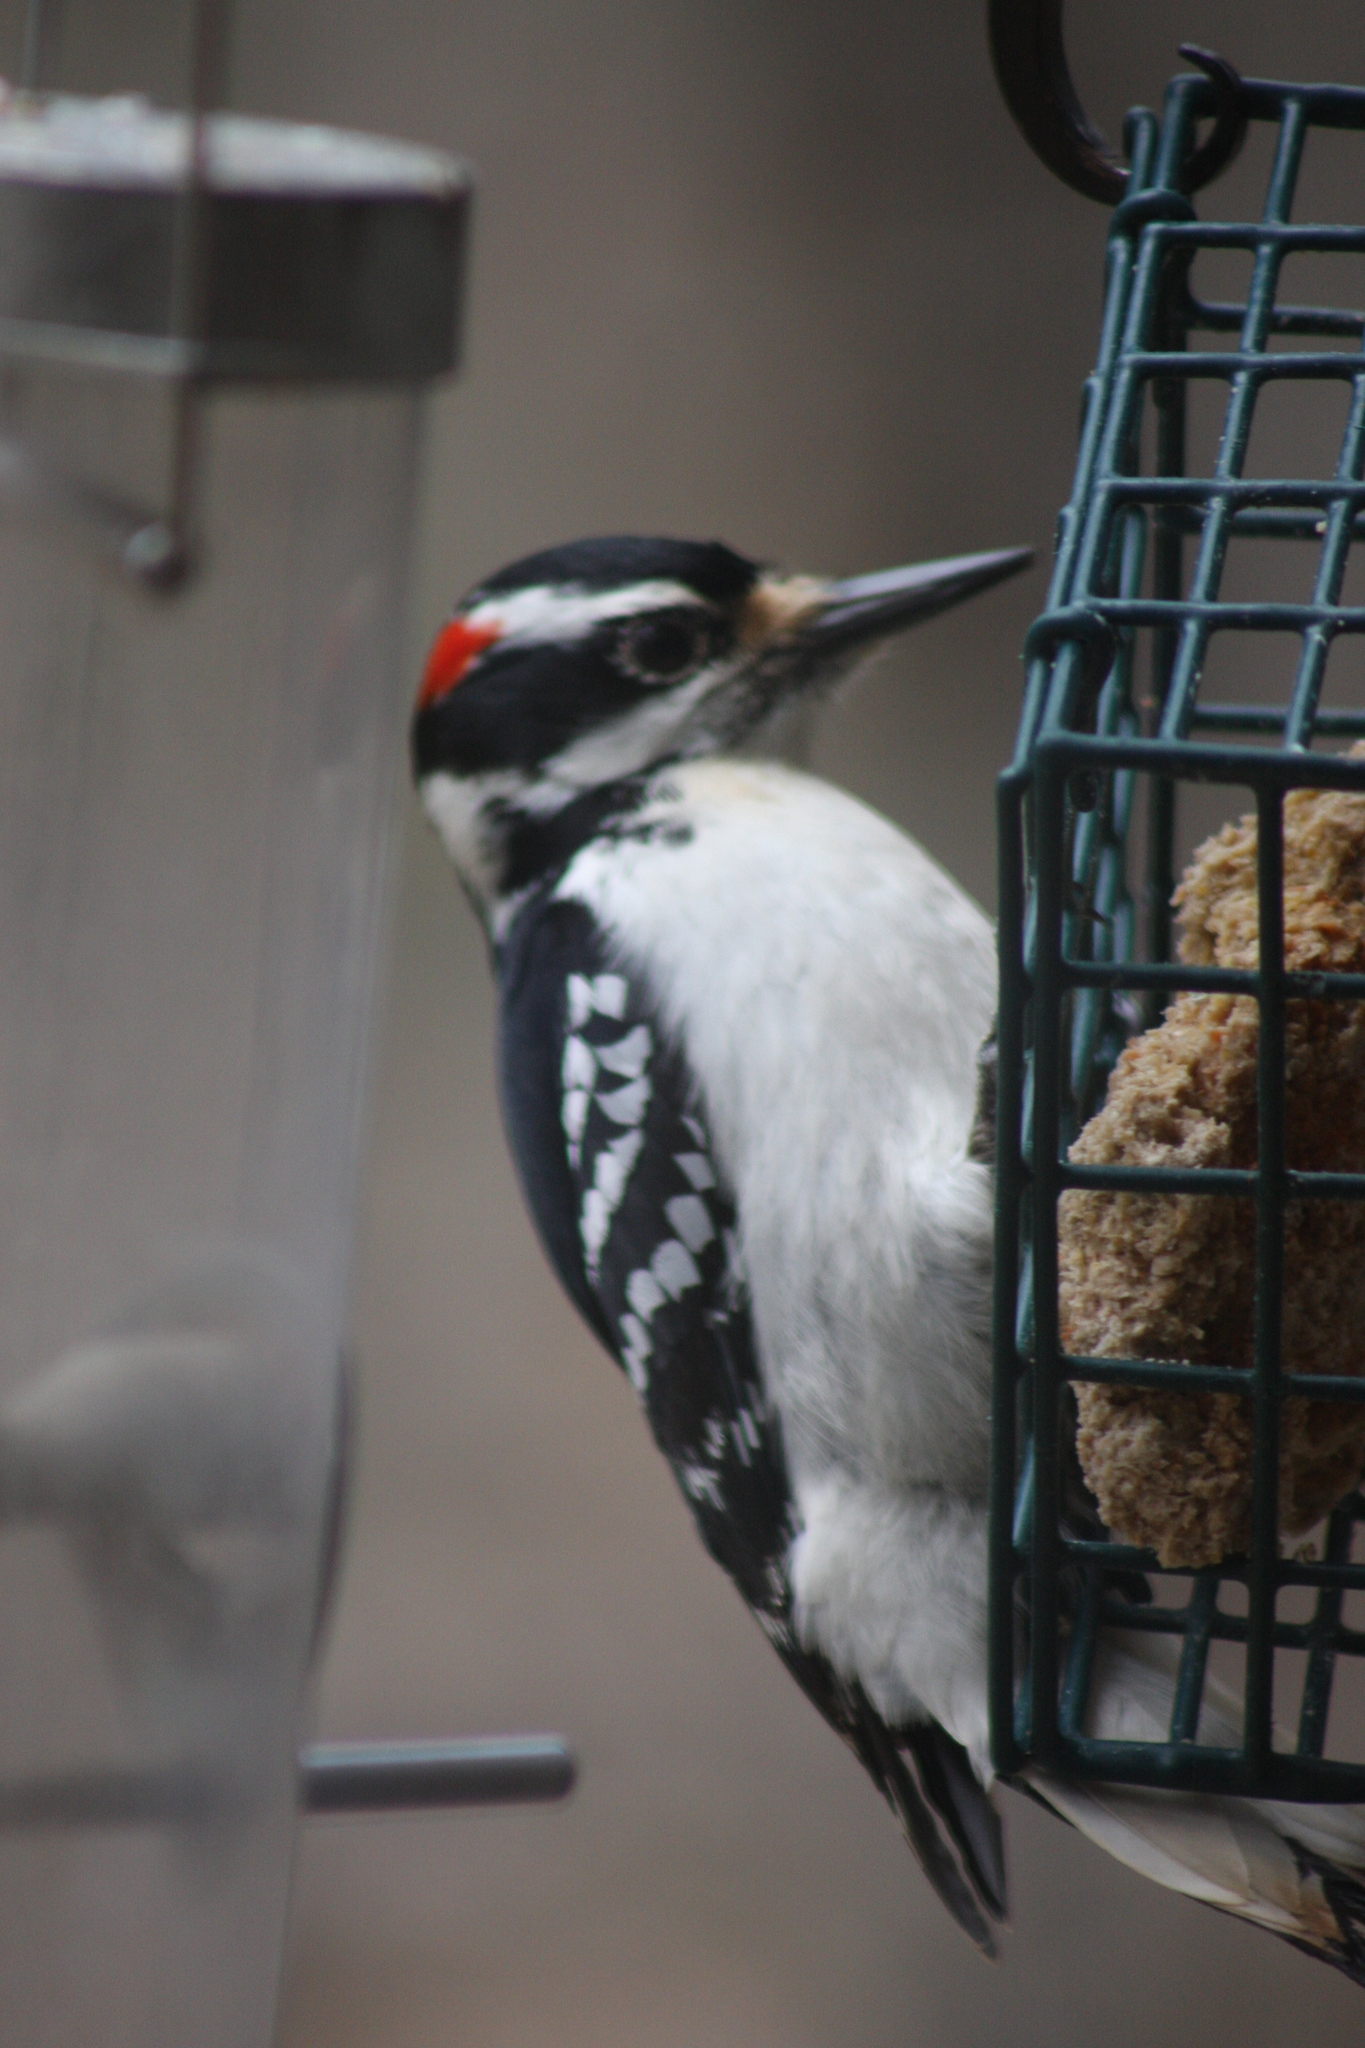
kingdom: Animalia
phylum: Chordata
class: Aves
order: Piciformes
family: Picidae
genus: Leuconotopicus
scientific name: Leuconotopicus villosus
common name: Hairy woodpecker
